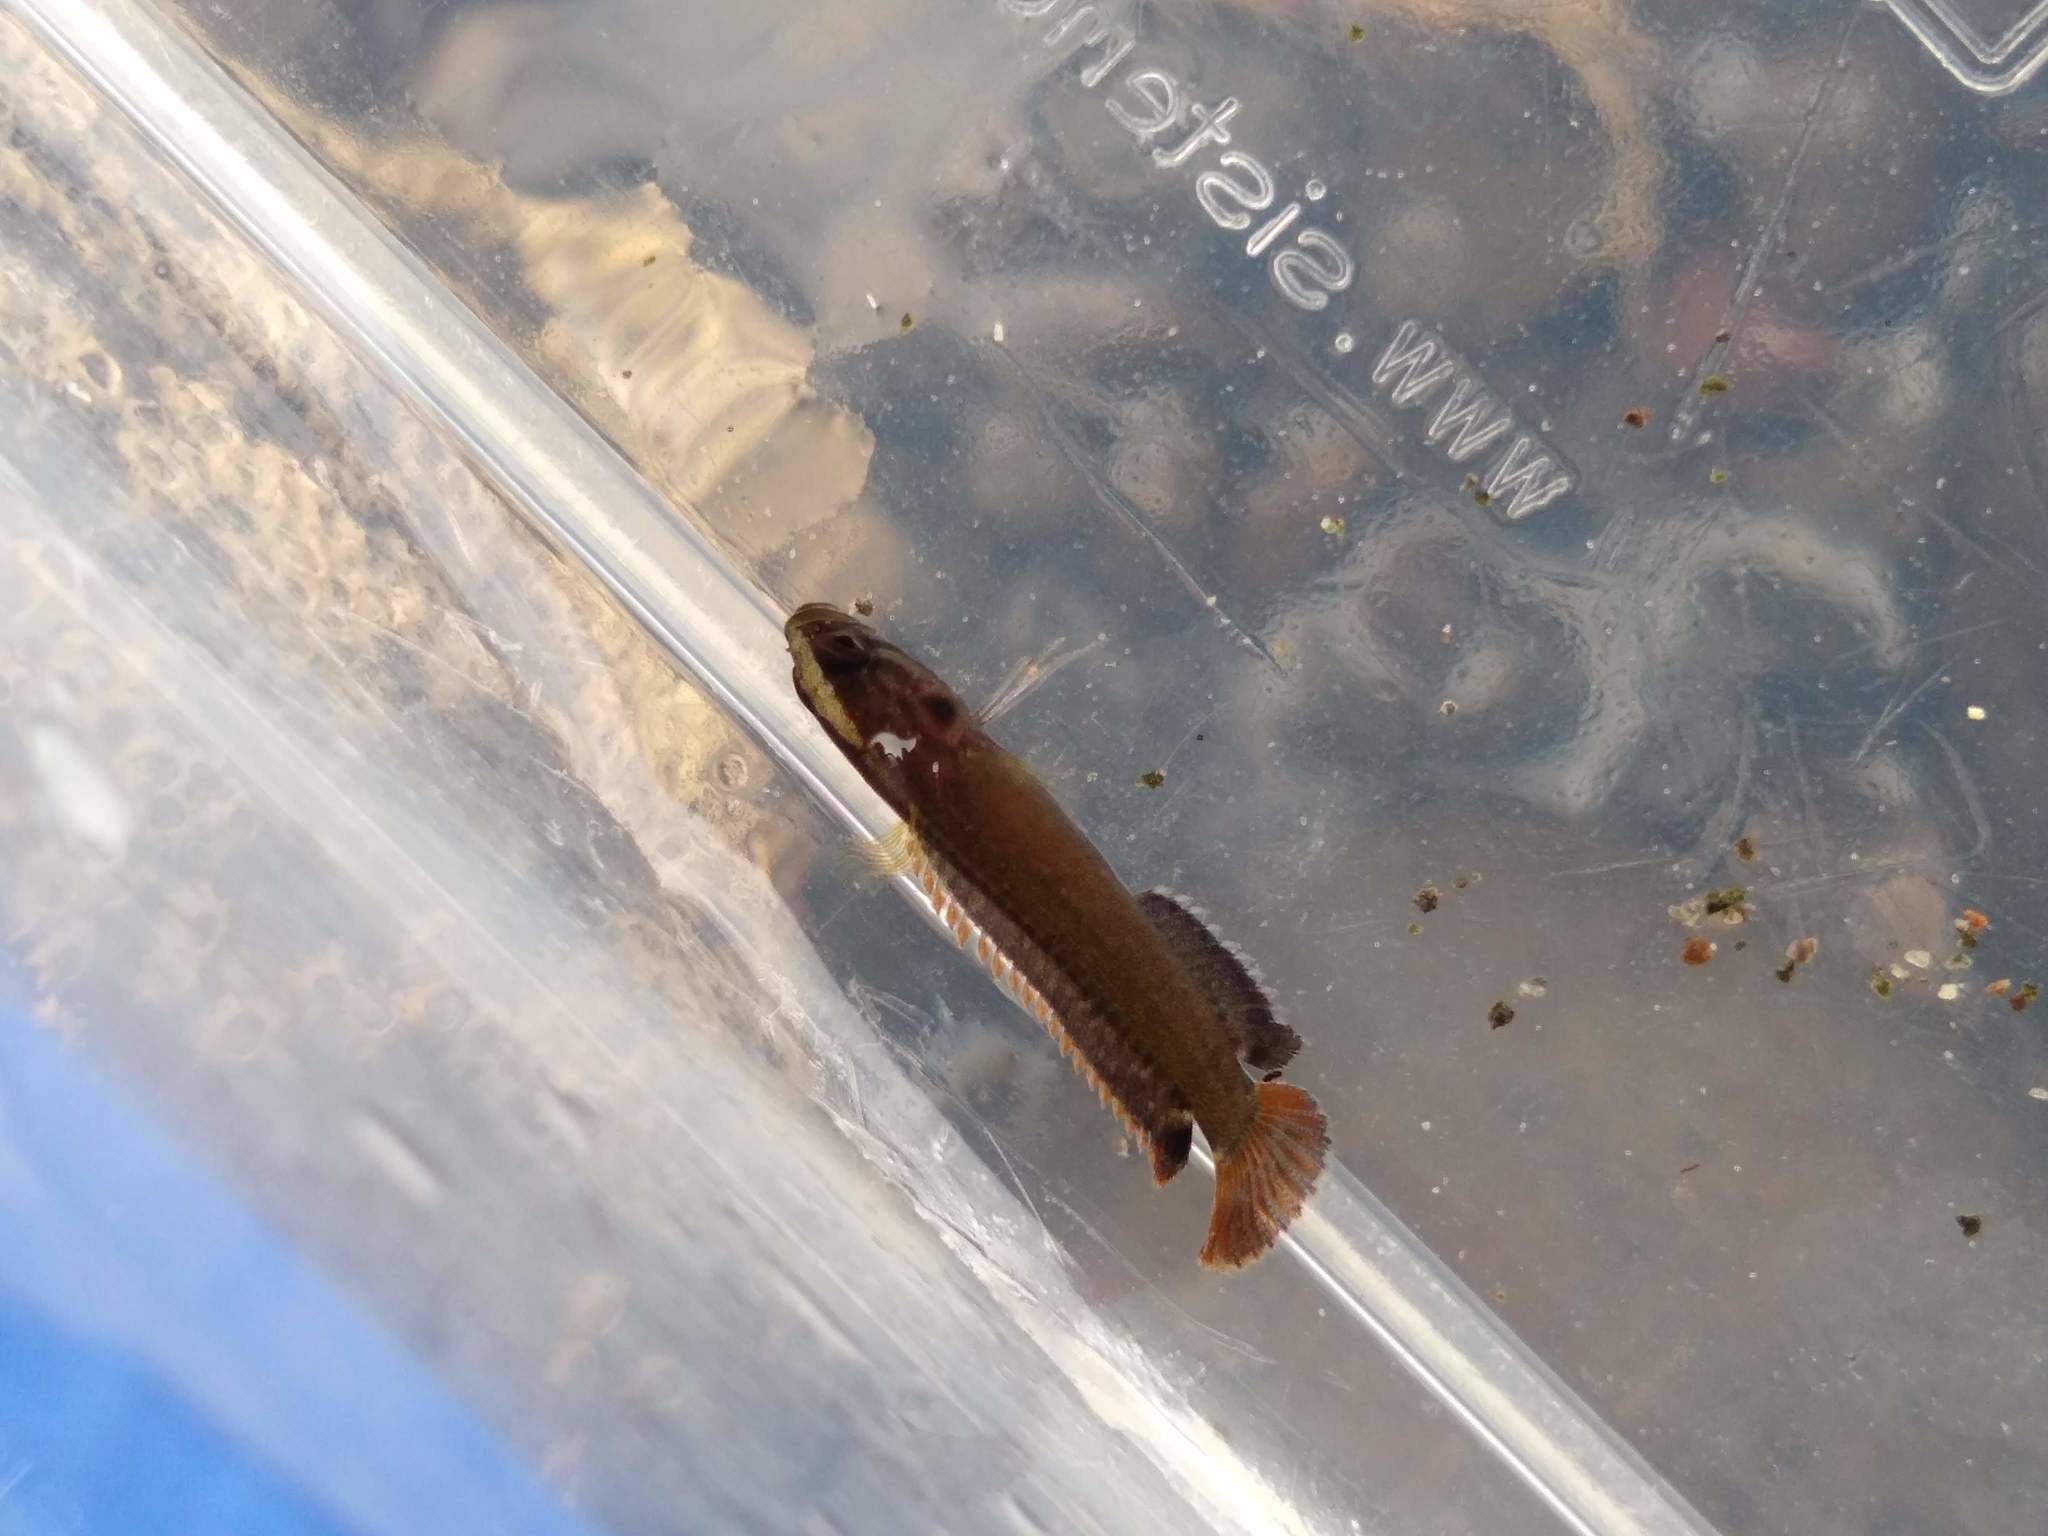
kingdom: Animalia
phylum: Chordata
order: Perciformes
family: Plesiopidae
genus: Acanthoclinus
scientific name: Acanthoclinus fuscus
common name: Olive rockfish
